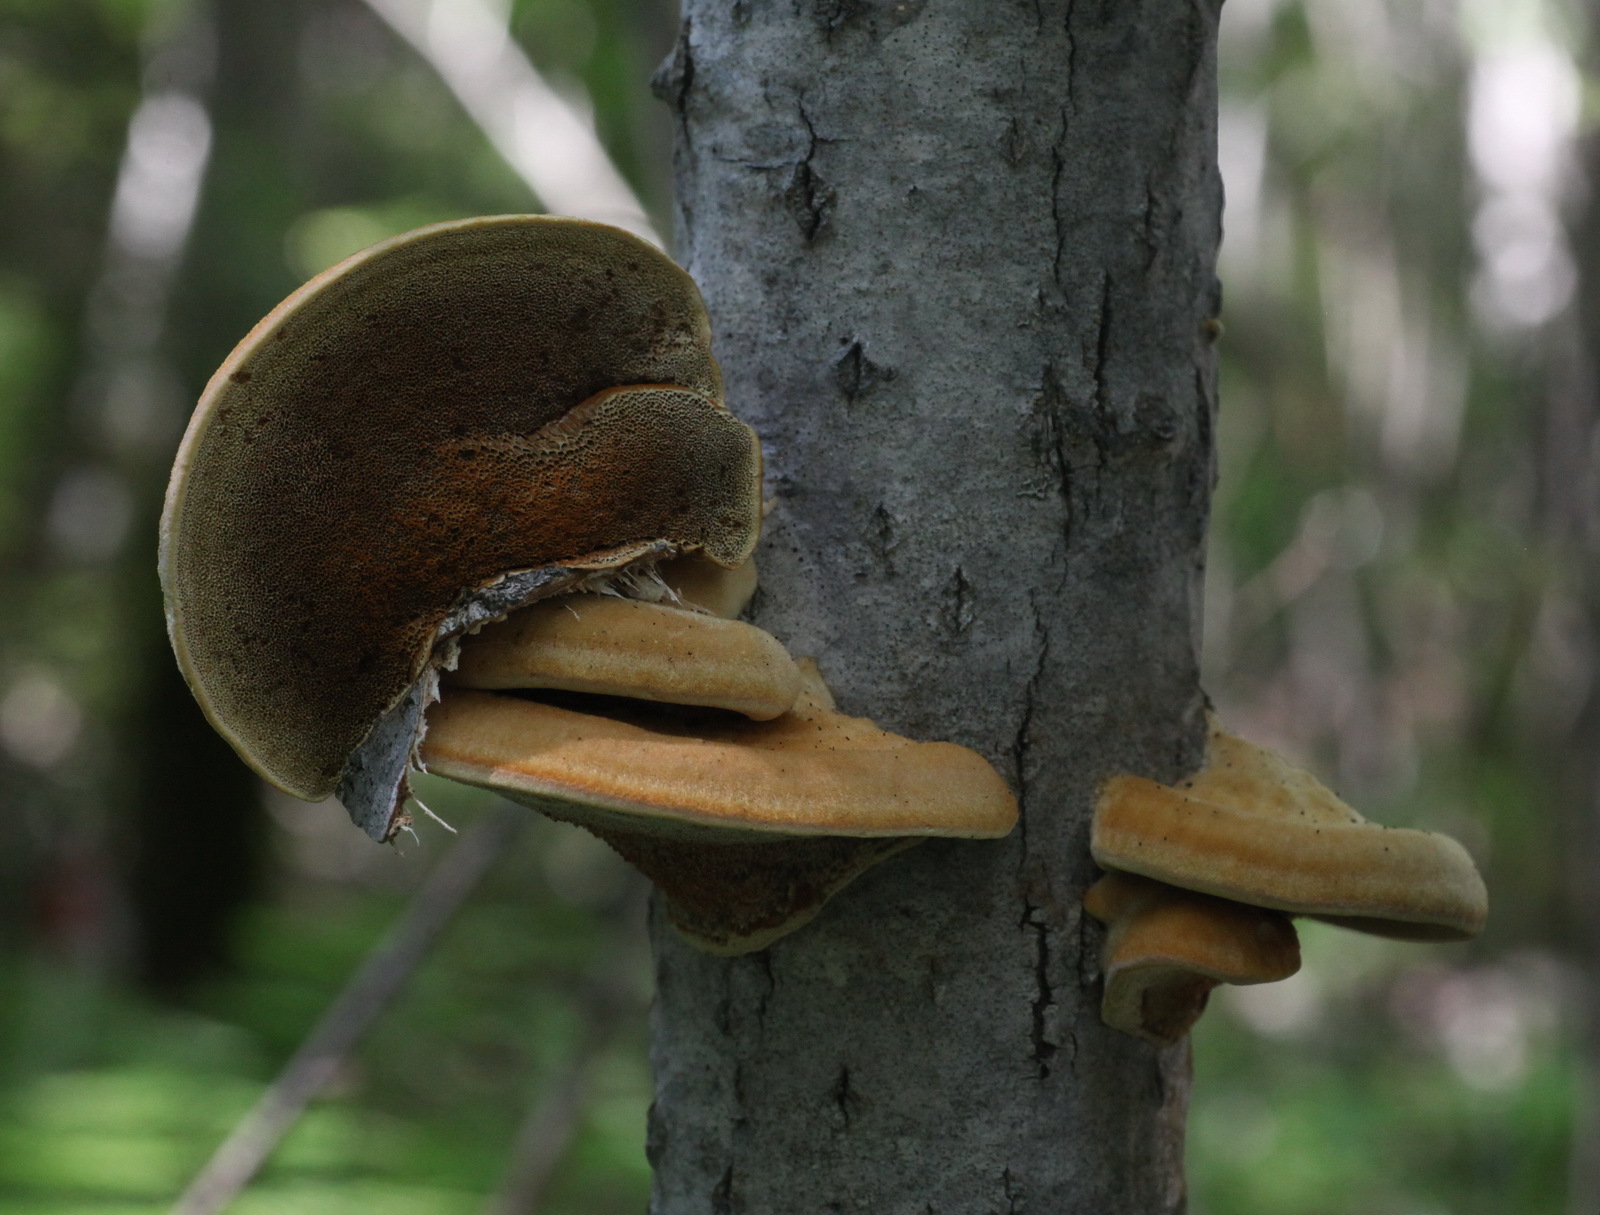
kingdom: Fungi
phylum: Basidiomycota
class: Agaricomycetes
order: Hymenochaetales
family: Hymenochaetaceae
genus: Inocutis
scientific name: Inocutis rheades
